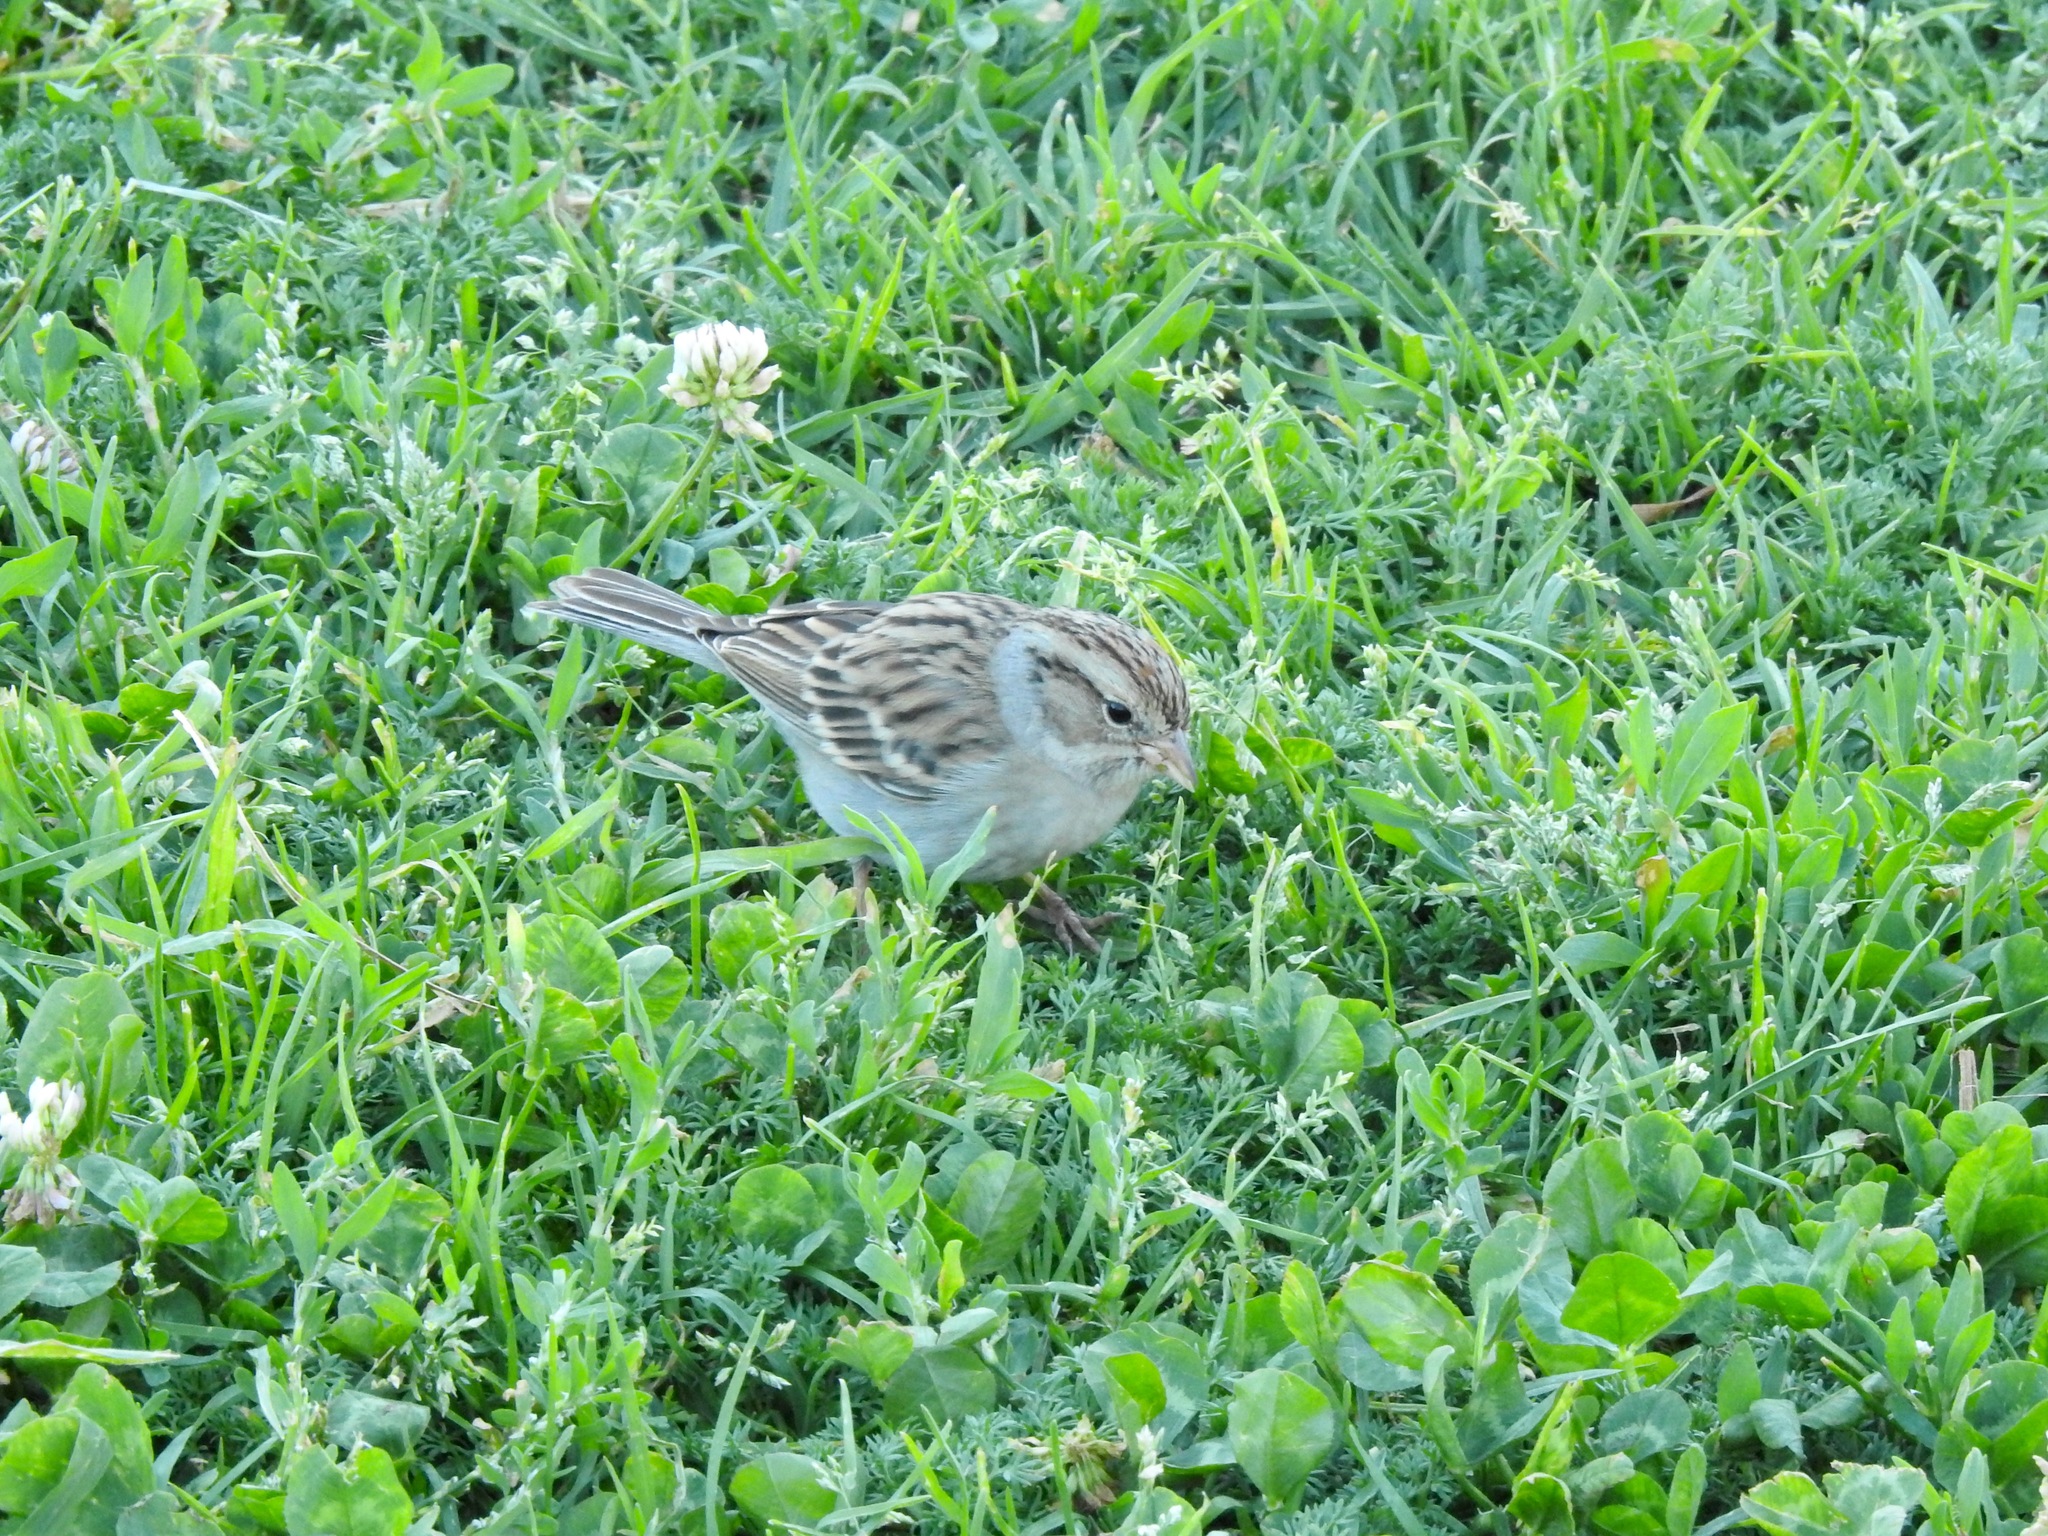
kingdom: Animalia
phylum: Chordata
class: Aves
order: Passeriformes
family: Passerellidae
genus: Spizella
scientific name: Spizella passerina
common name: Chipping sparrow
